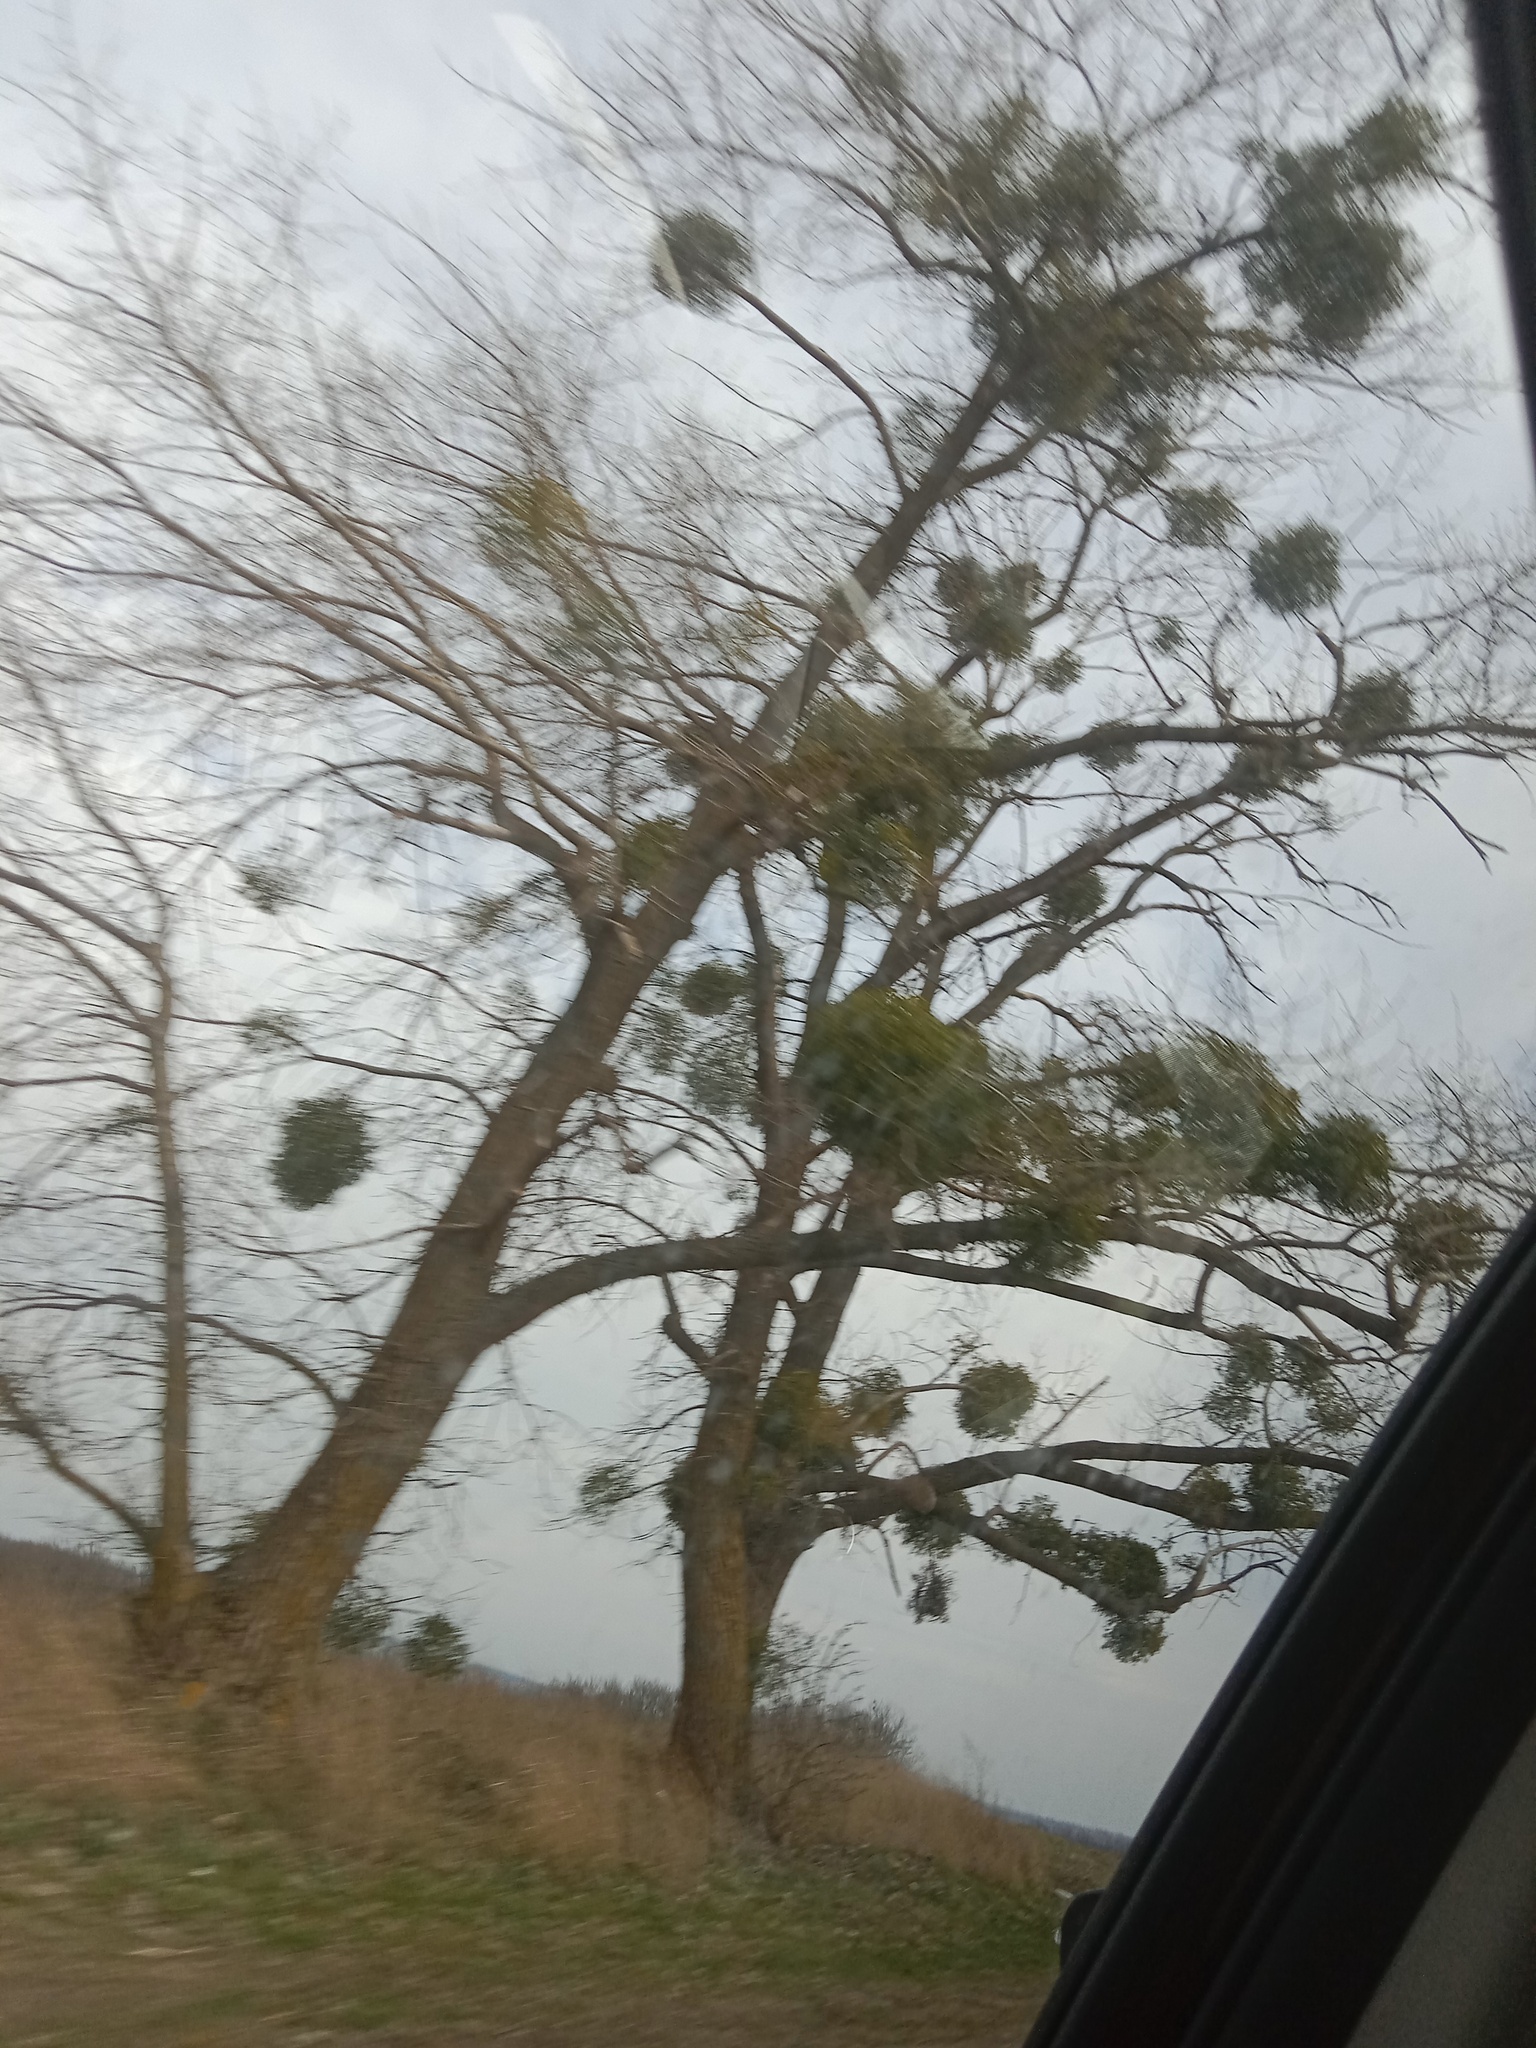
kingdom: Plantae
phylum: Tracheophyta
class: Magnoliopsida
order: Santalales
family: Viscaceae
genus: Viscum
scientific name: Viscum album
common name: Mistletoe
